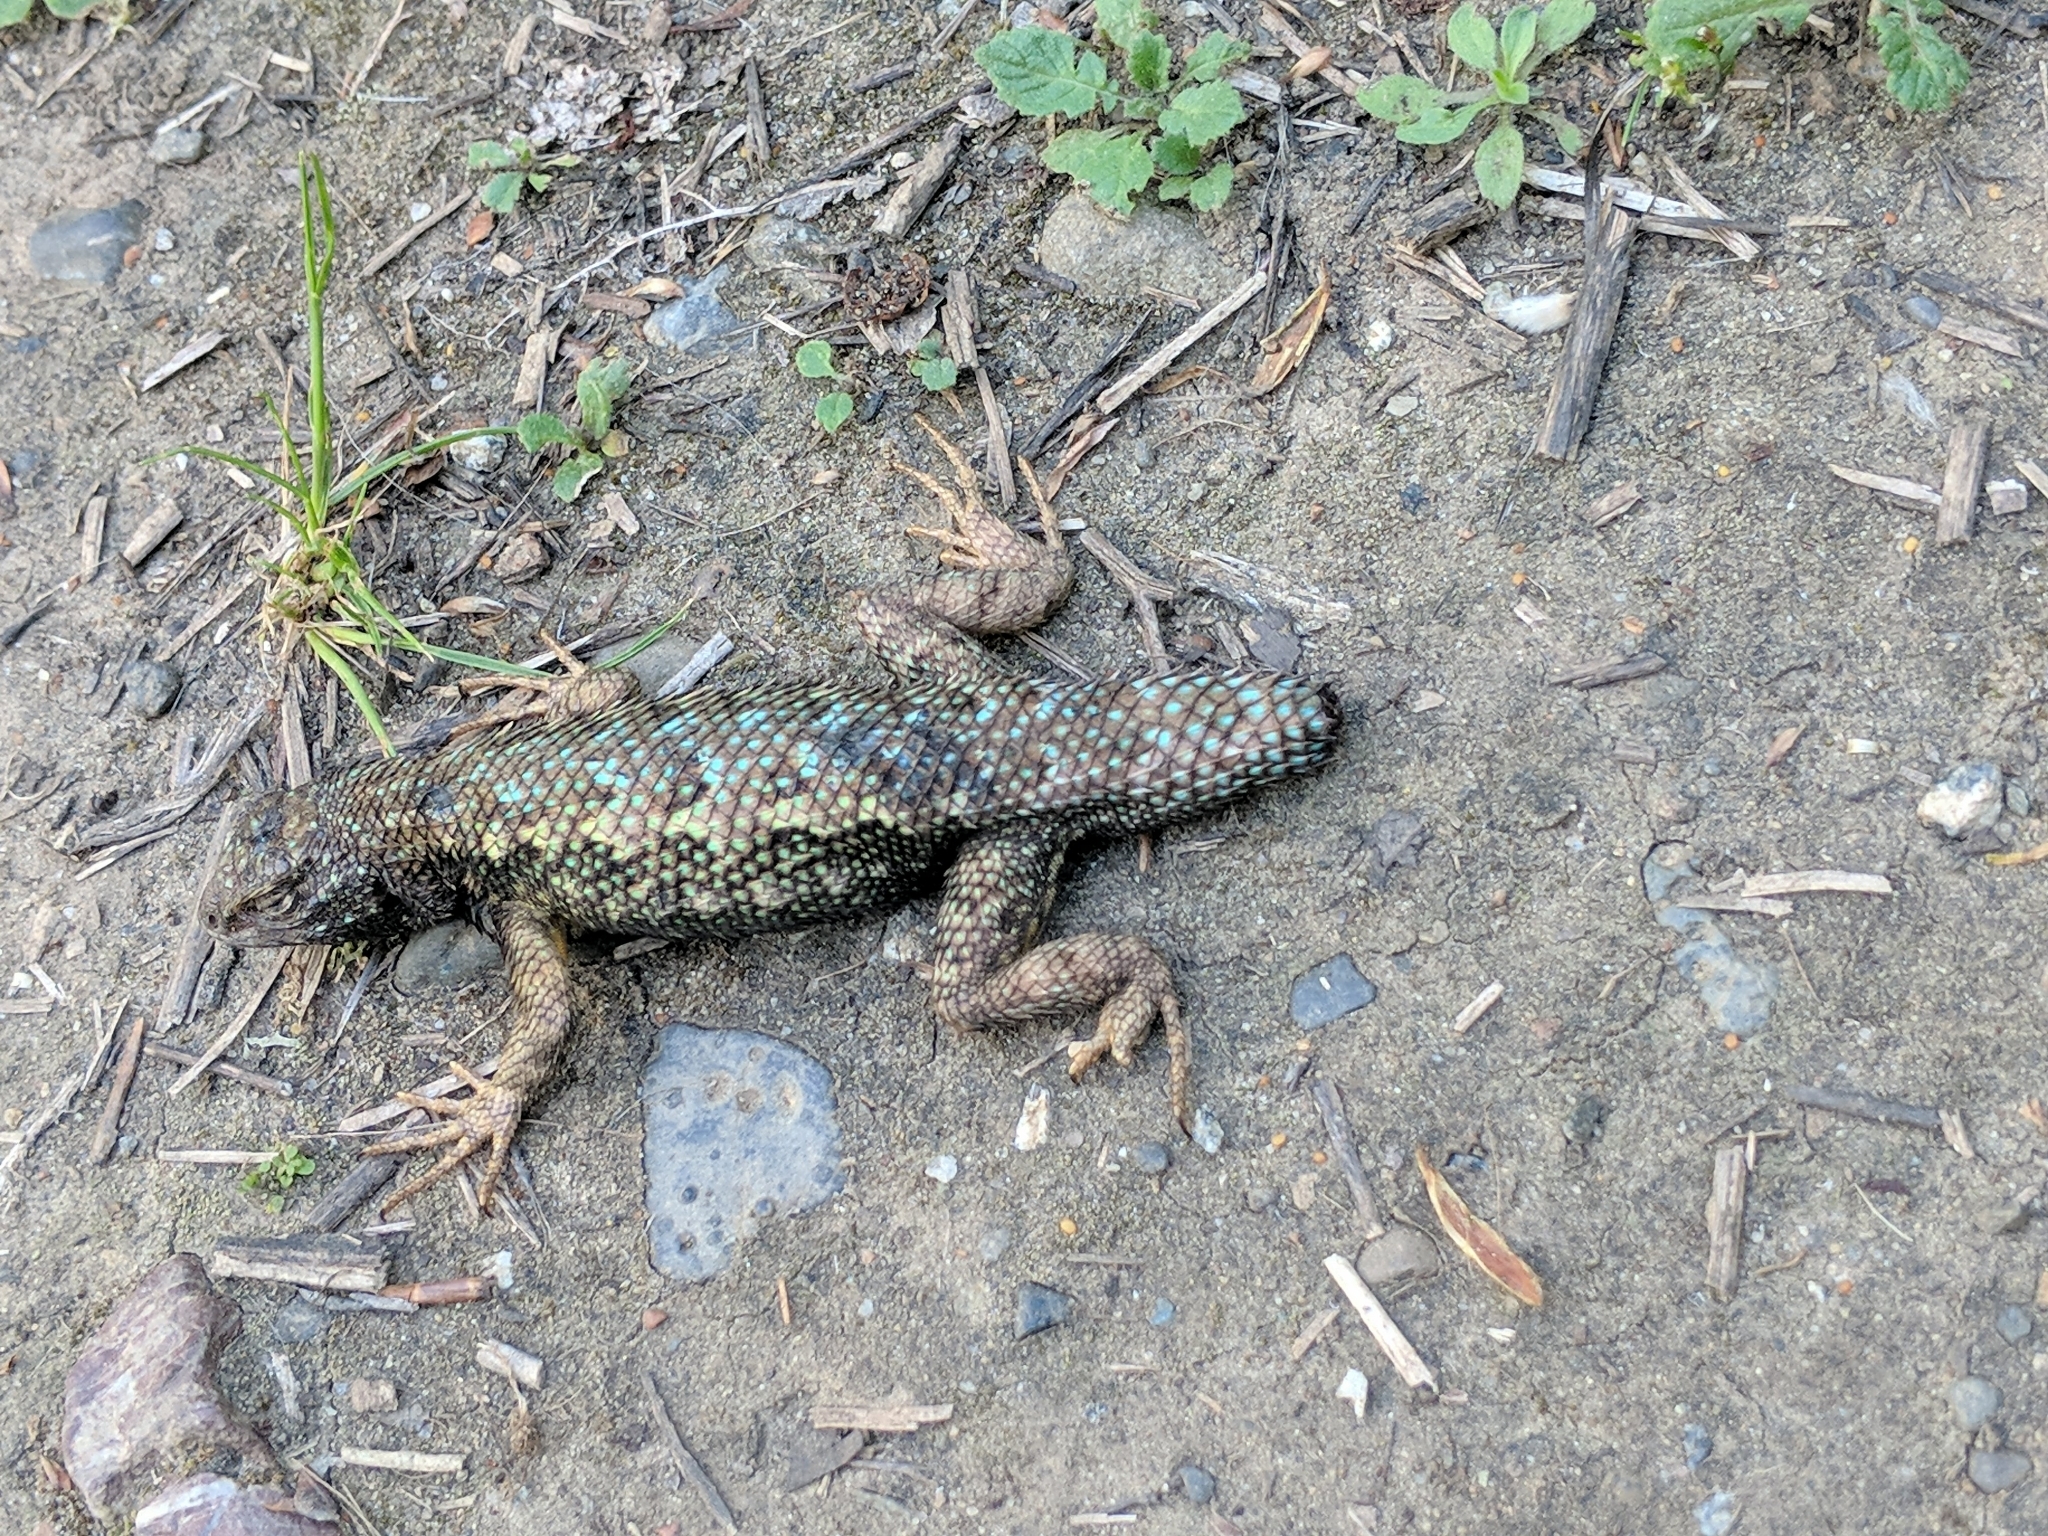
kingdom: Animalia
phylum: Chordata
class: Squamata
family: Phrynosomatidae
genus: Sceloporus
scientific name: Sceloporus occidentalis
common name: Western fence lizard
